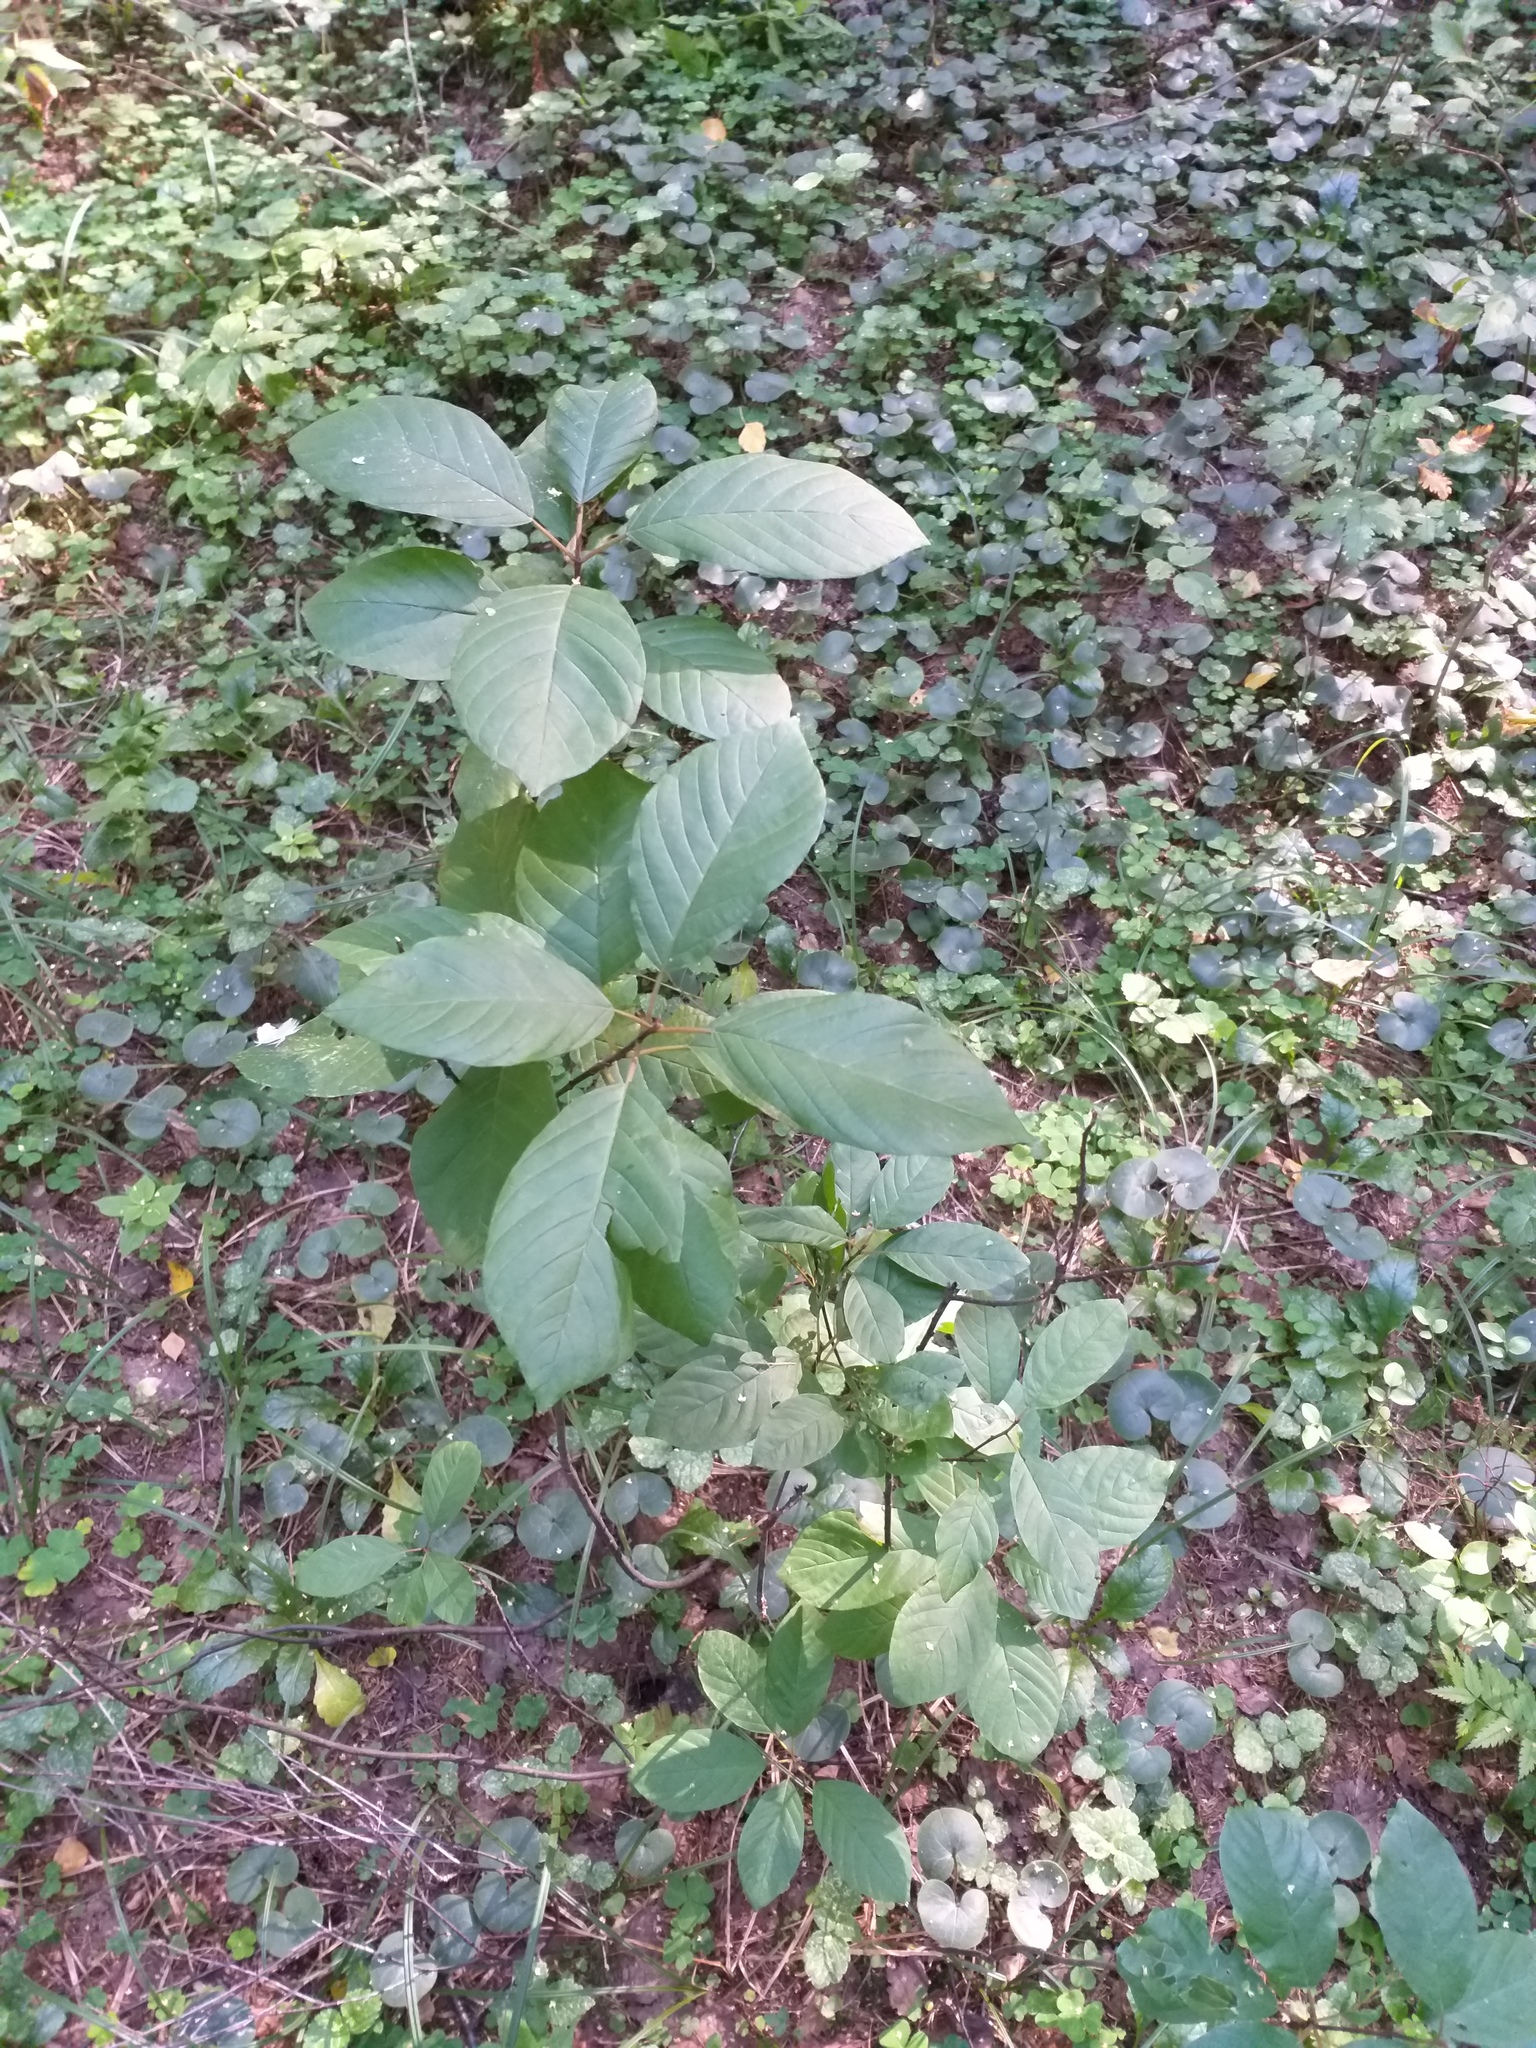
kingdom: Plantae
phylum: Tracheophyta
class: Magnoliopsida
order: Rosales
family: Rhamnaceae
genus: Frangula
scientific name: Frangula alnus
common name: Alder buckthorn
